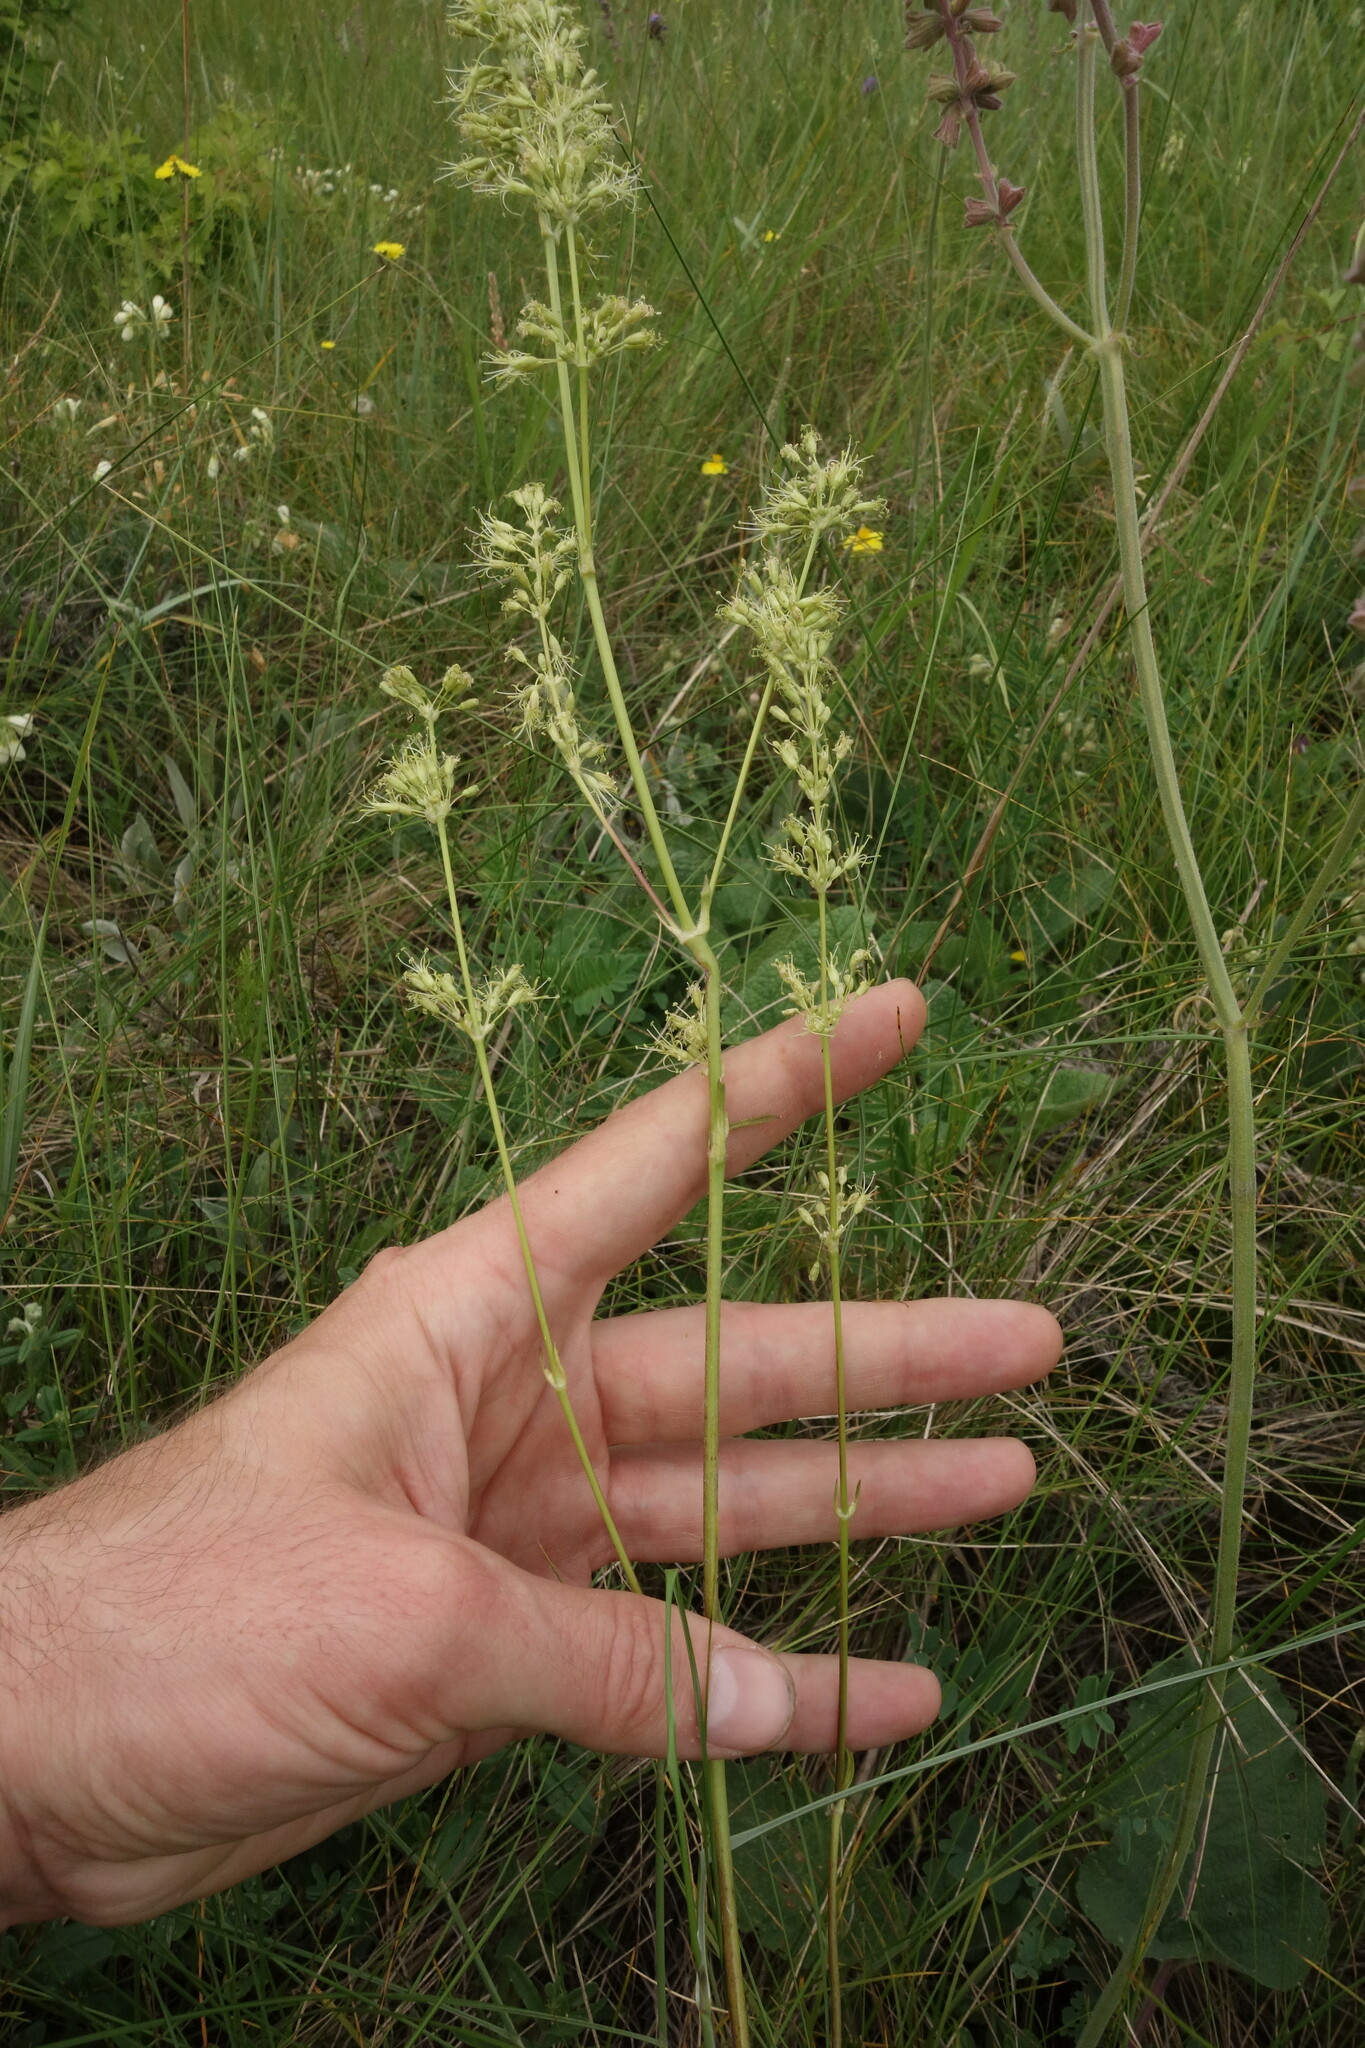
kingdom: Plantae
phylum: Tracheophyta
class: Magnoliopsida
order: Caryophyllales
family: Caryophyllaceae
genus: Silene
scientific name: Silene chersonensis
